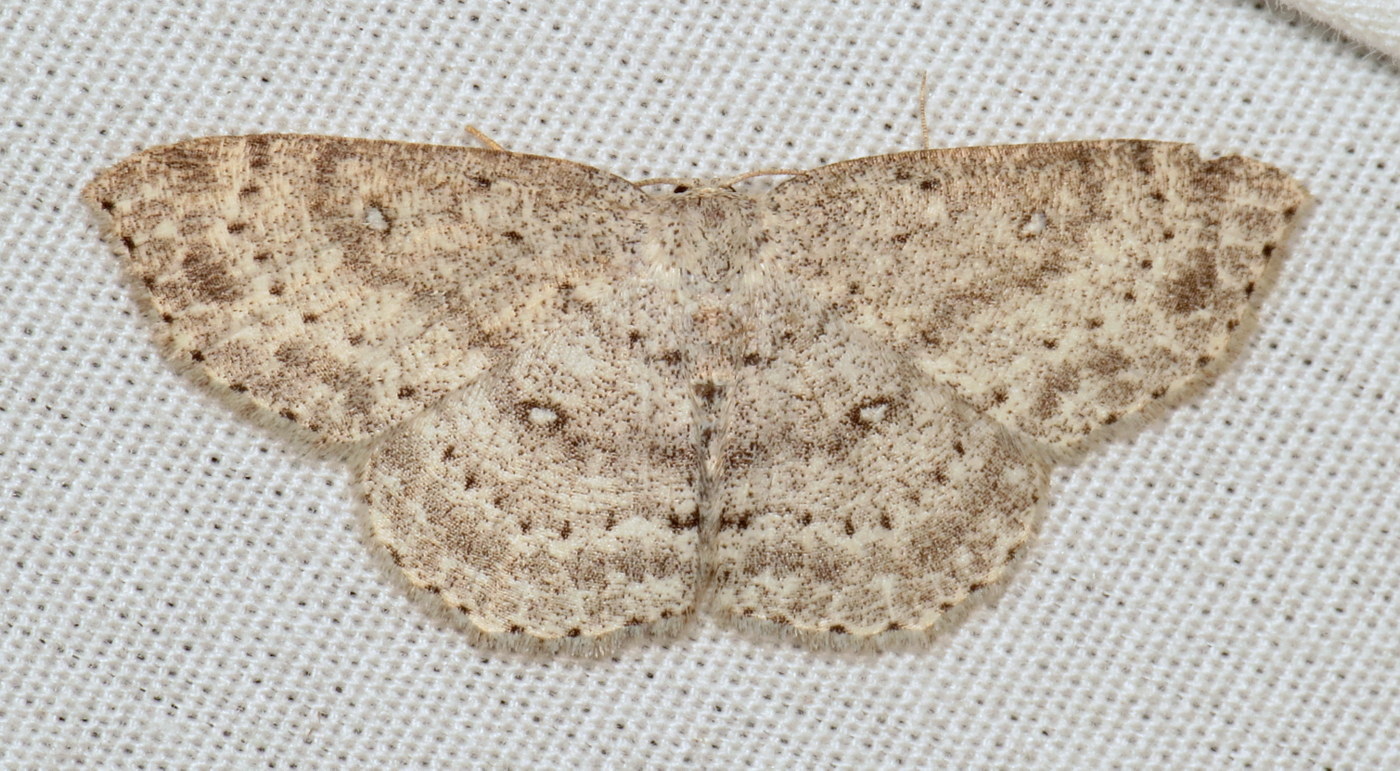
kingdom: Animalia
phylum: Arthropoda
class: Insecta
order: Lepidoptera
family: Geometridae
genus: Cyclophora
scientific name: Cyclophora pendulinaria
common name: Sweet fern geometer
